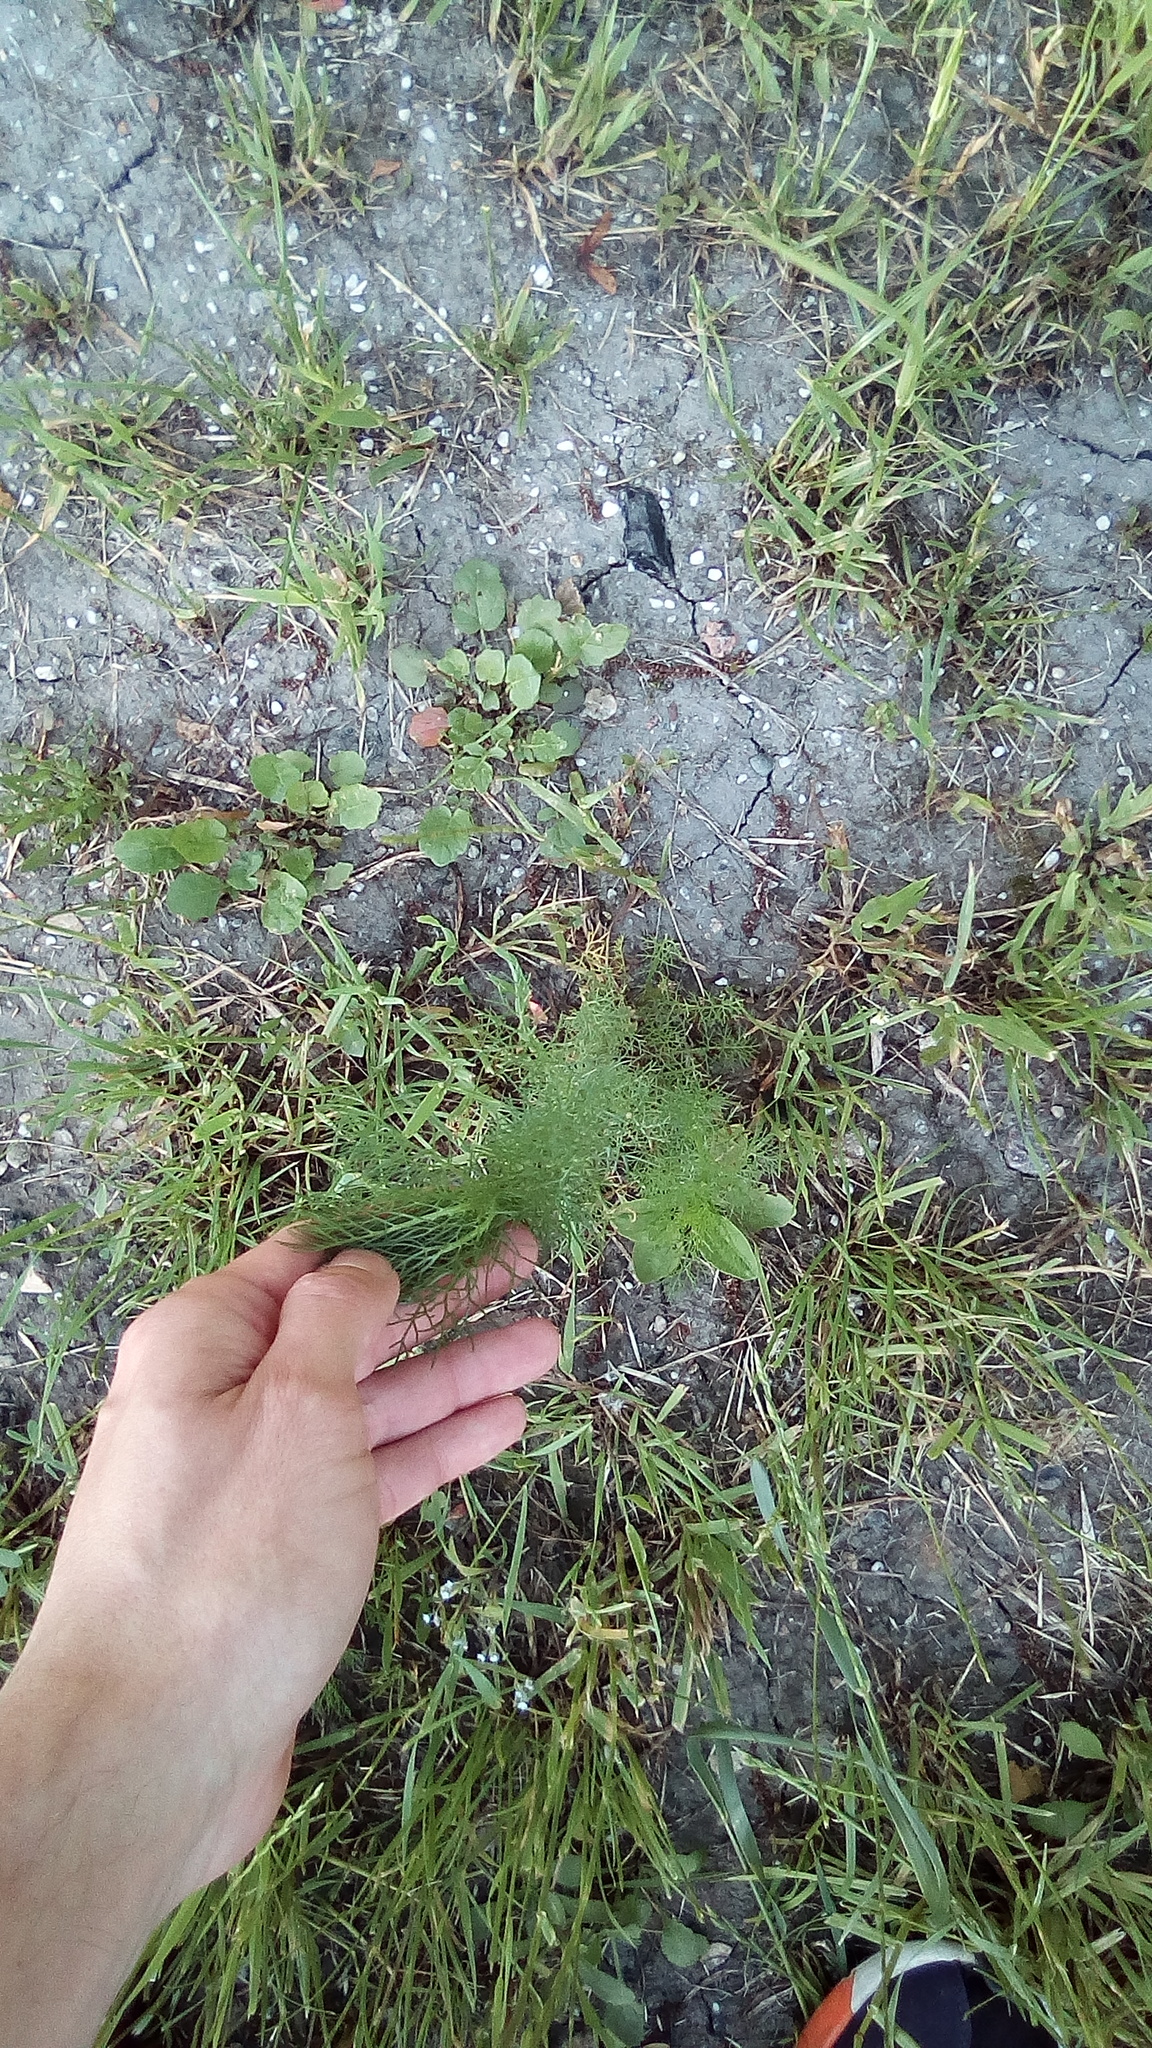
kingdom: Plantae
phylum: Tracheophyta
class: Magnoliopsida
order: Asterales
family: Asteraceae
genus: Tripleurospermum
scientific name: Tripleurospermum inodorum
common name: Scentless mayweed
